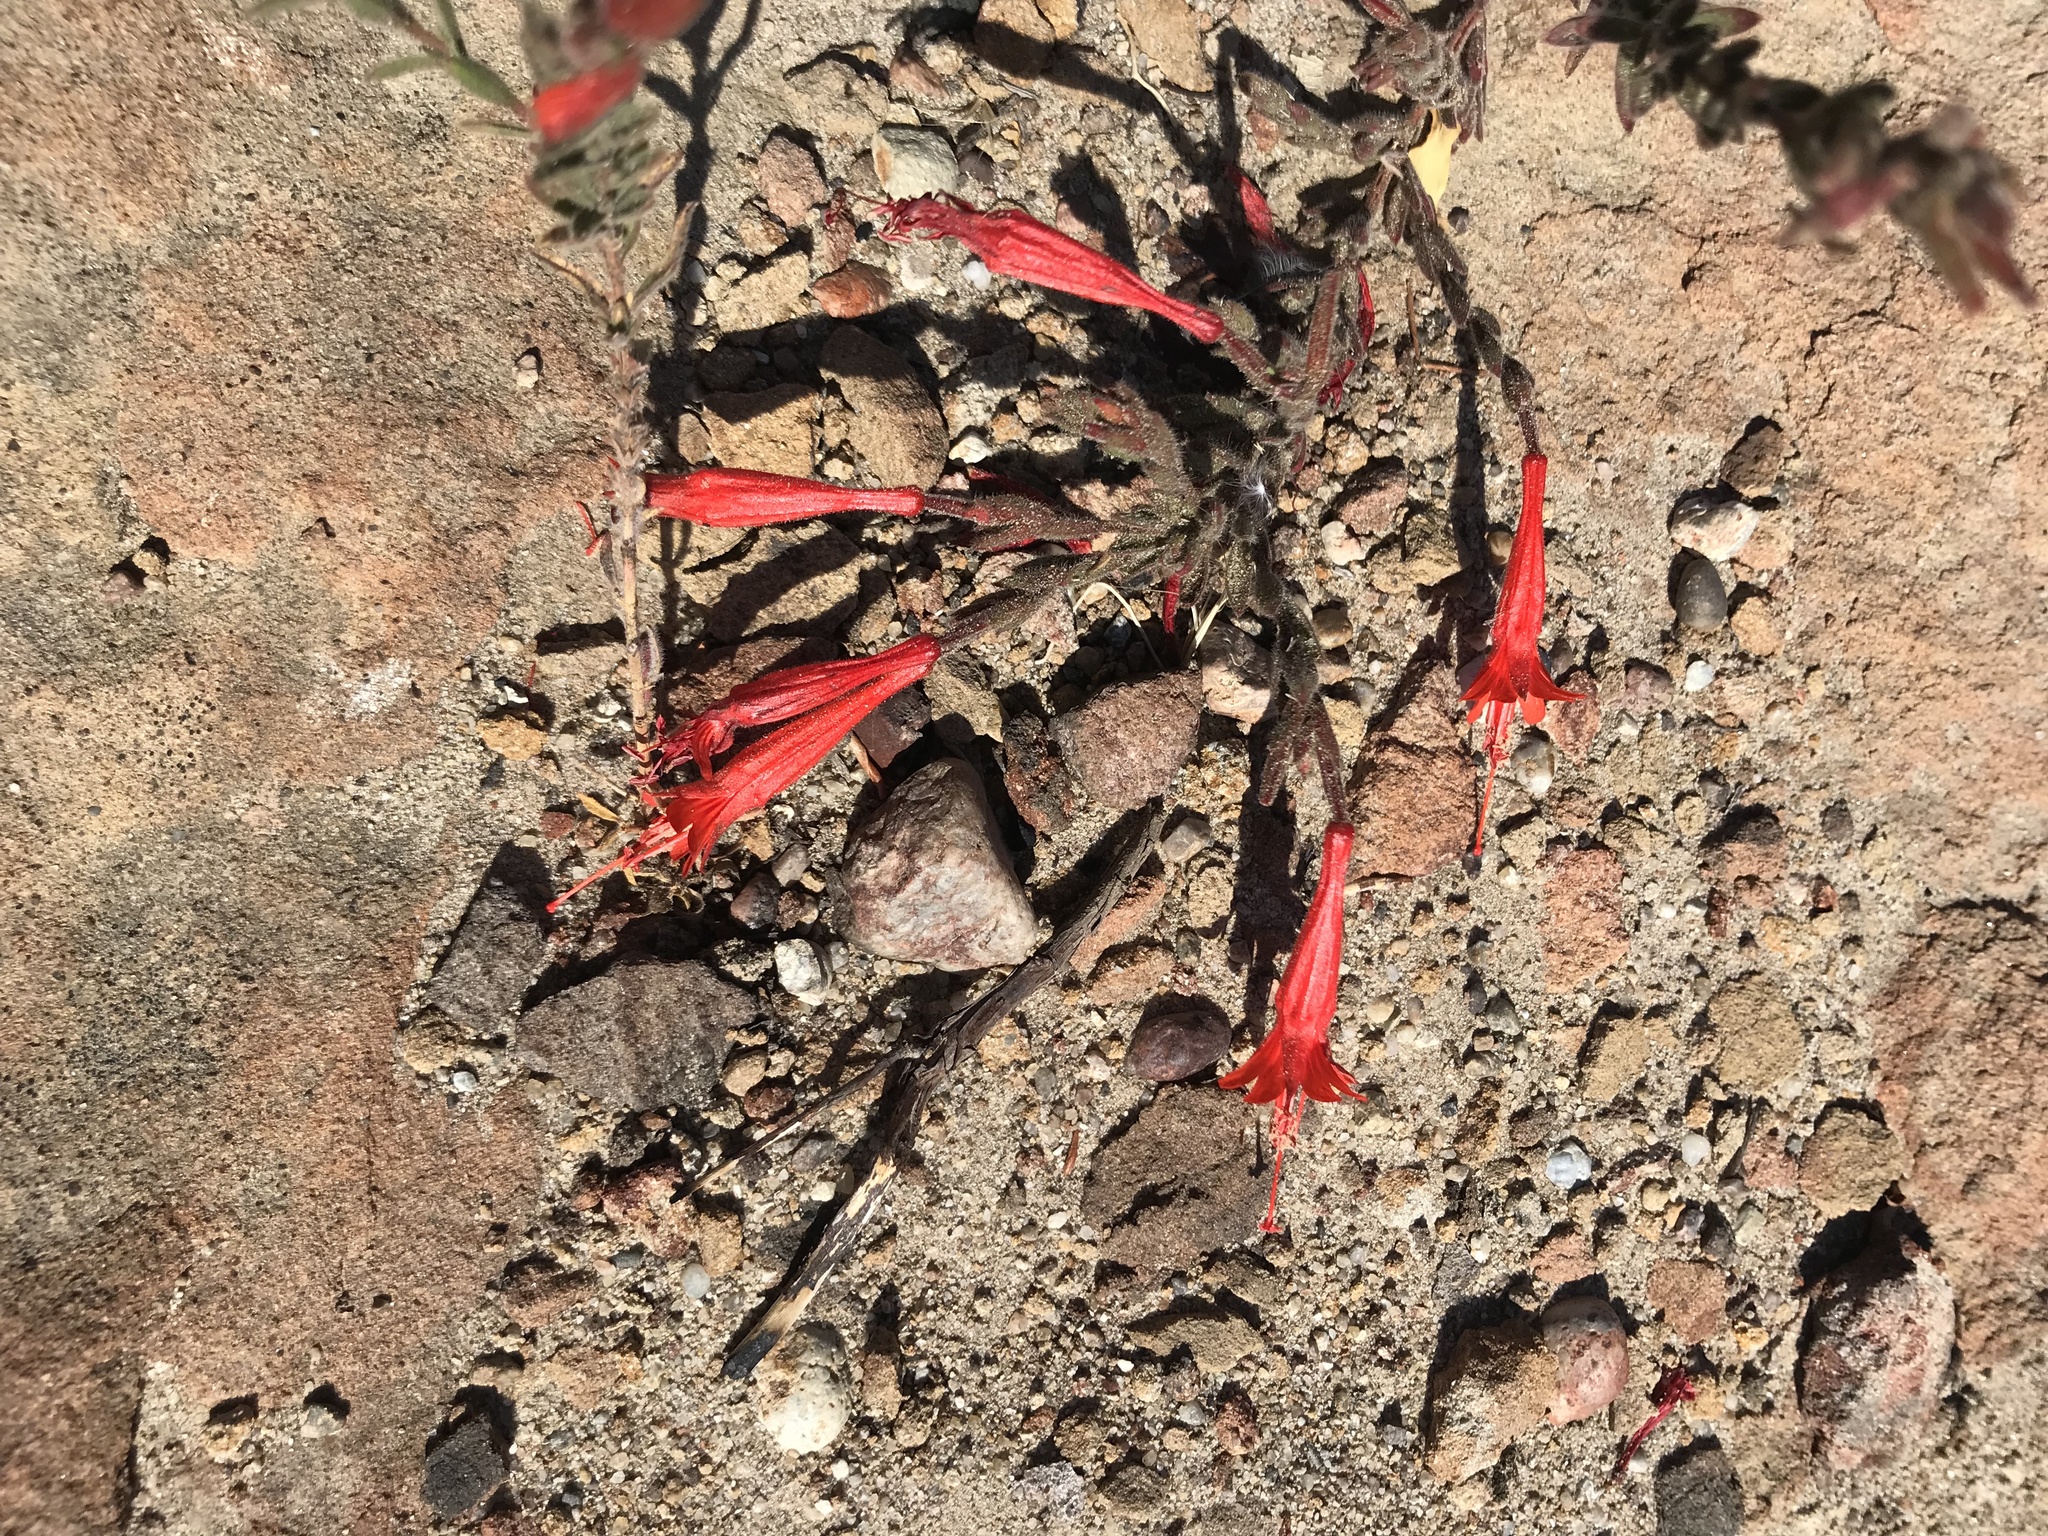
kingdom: Plantae
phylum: Tracheophyta
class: Magnoliopsida
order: Myrtales
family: Onagraceae
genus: Epilobium
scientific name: Epilobium canum
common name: California-fuchsia
